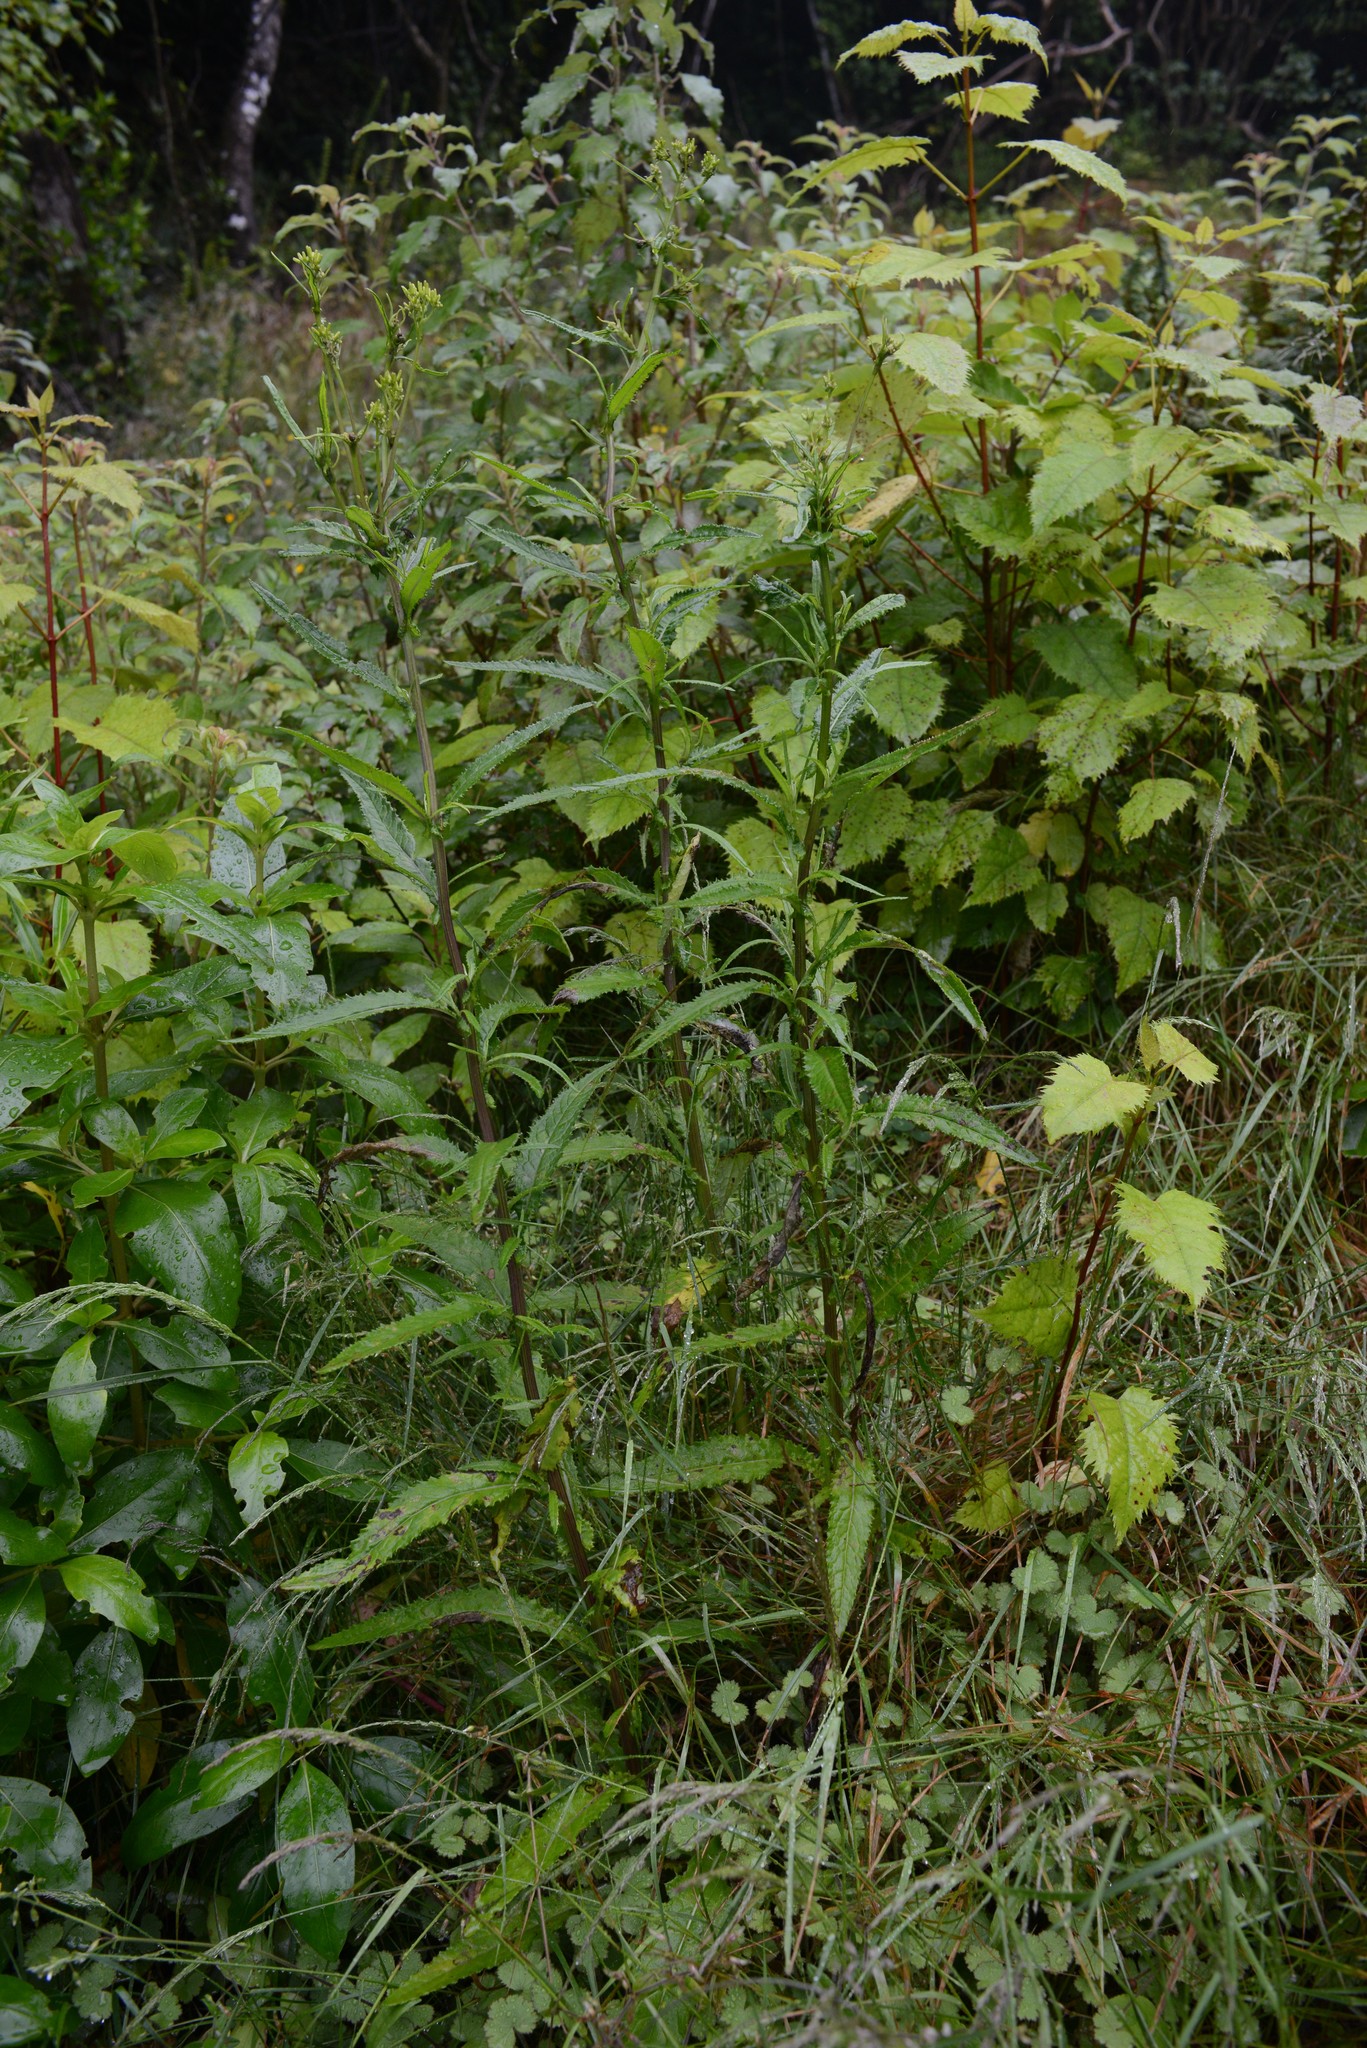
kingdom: Plantae
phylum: Tracheophyta
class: Magnoliopsida
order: Asterales
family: Asteraceae
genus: Senecio
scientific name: Senecio minimus
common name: Toothed fireweed
